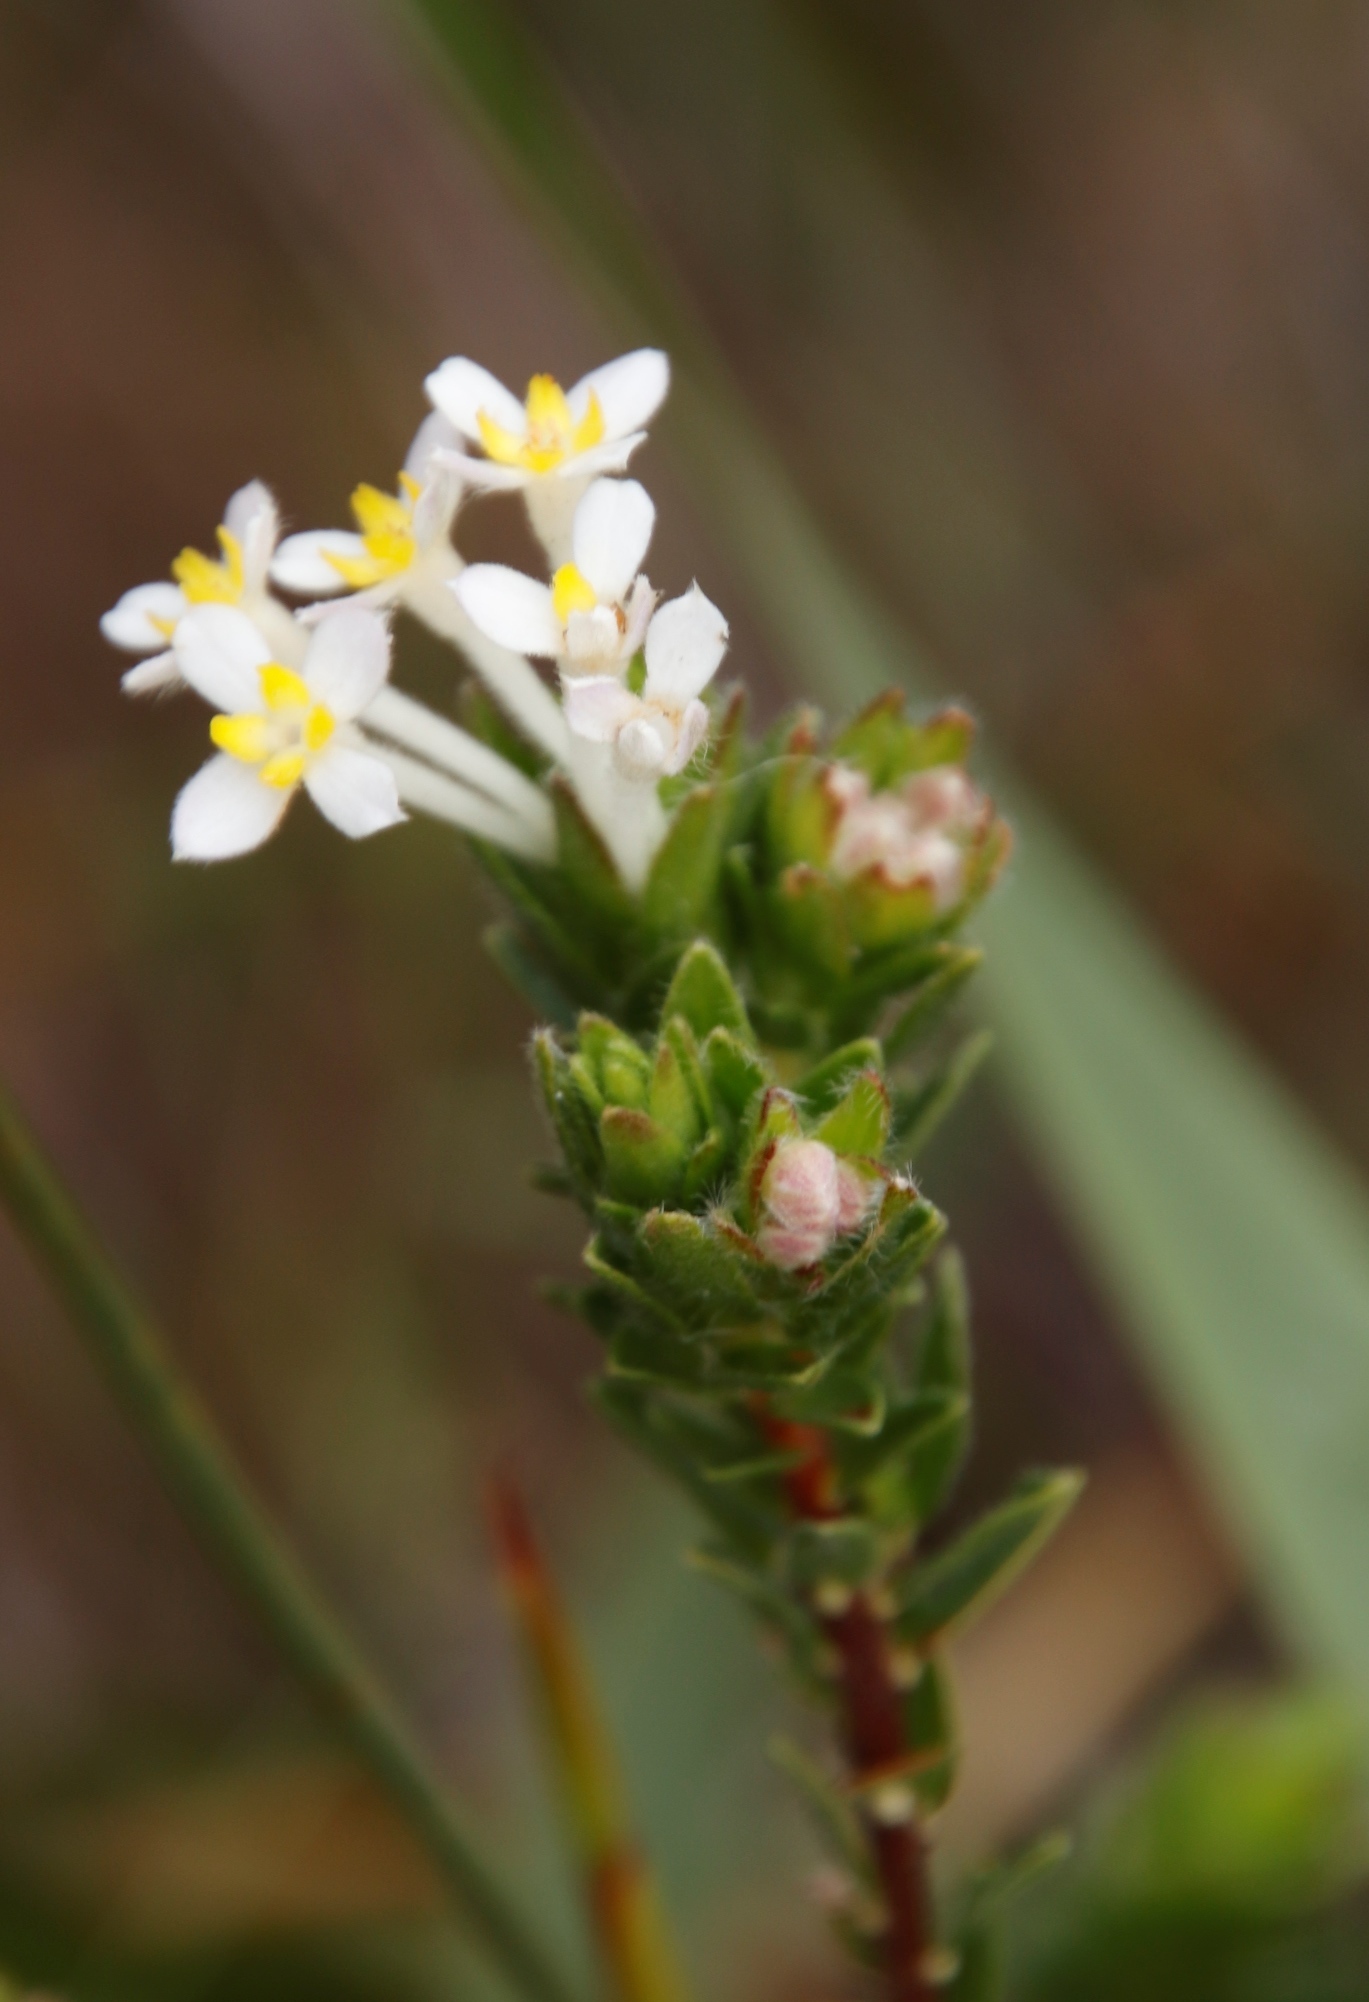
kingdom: Plantae
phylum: Tracheophyta
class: Magnoliopsida
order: Malvales
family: Thymelaeaceae
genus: Gnidia
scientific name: Gnidia tomentosa
